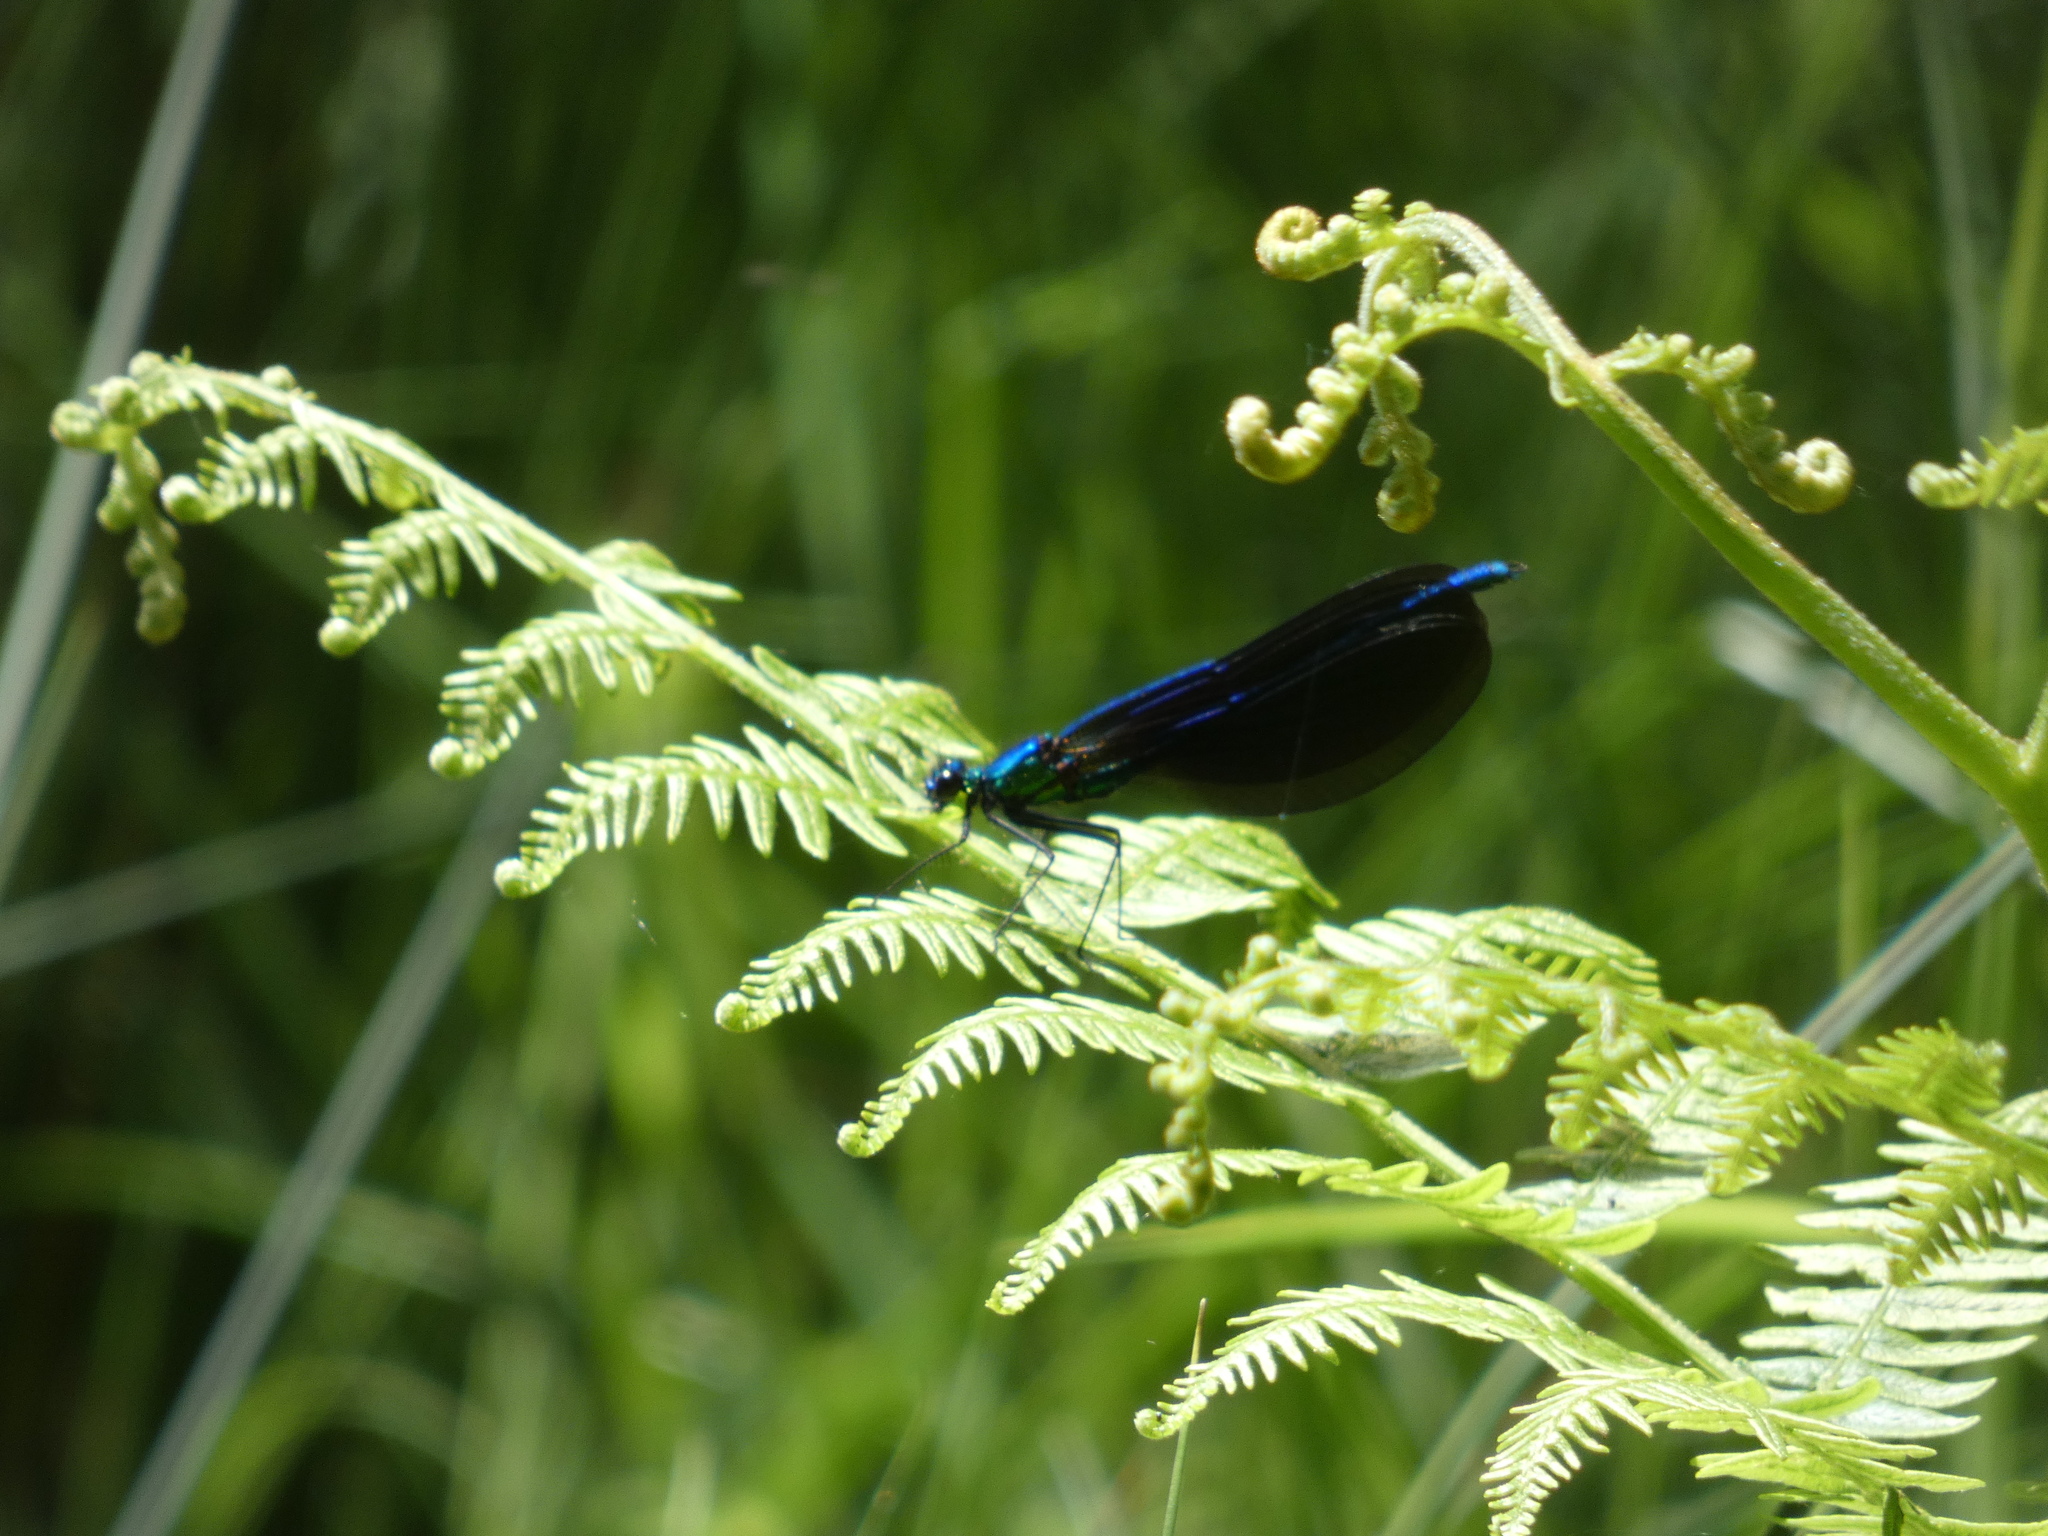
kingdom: Animalia
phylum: Arthropoda
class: Insecta
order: Odonata
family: Calopterygidae
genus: Calopteryx
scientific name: Calopteryx virgo
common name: Beautiful demoiselle
